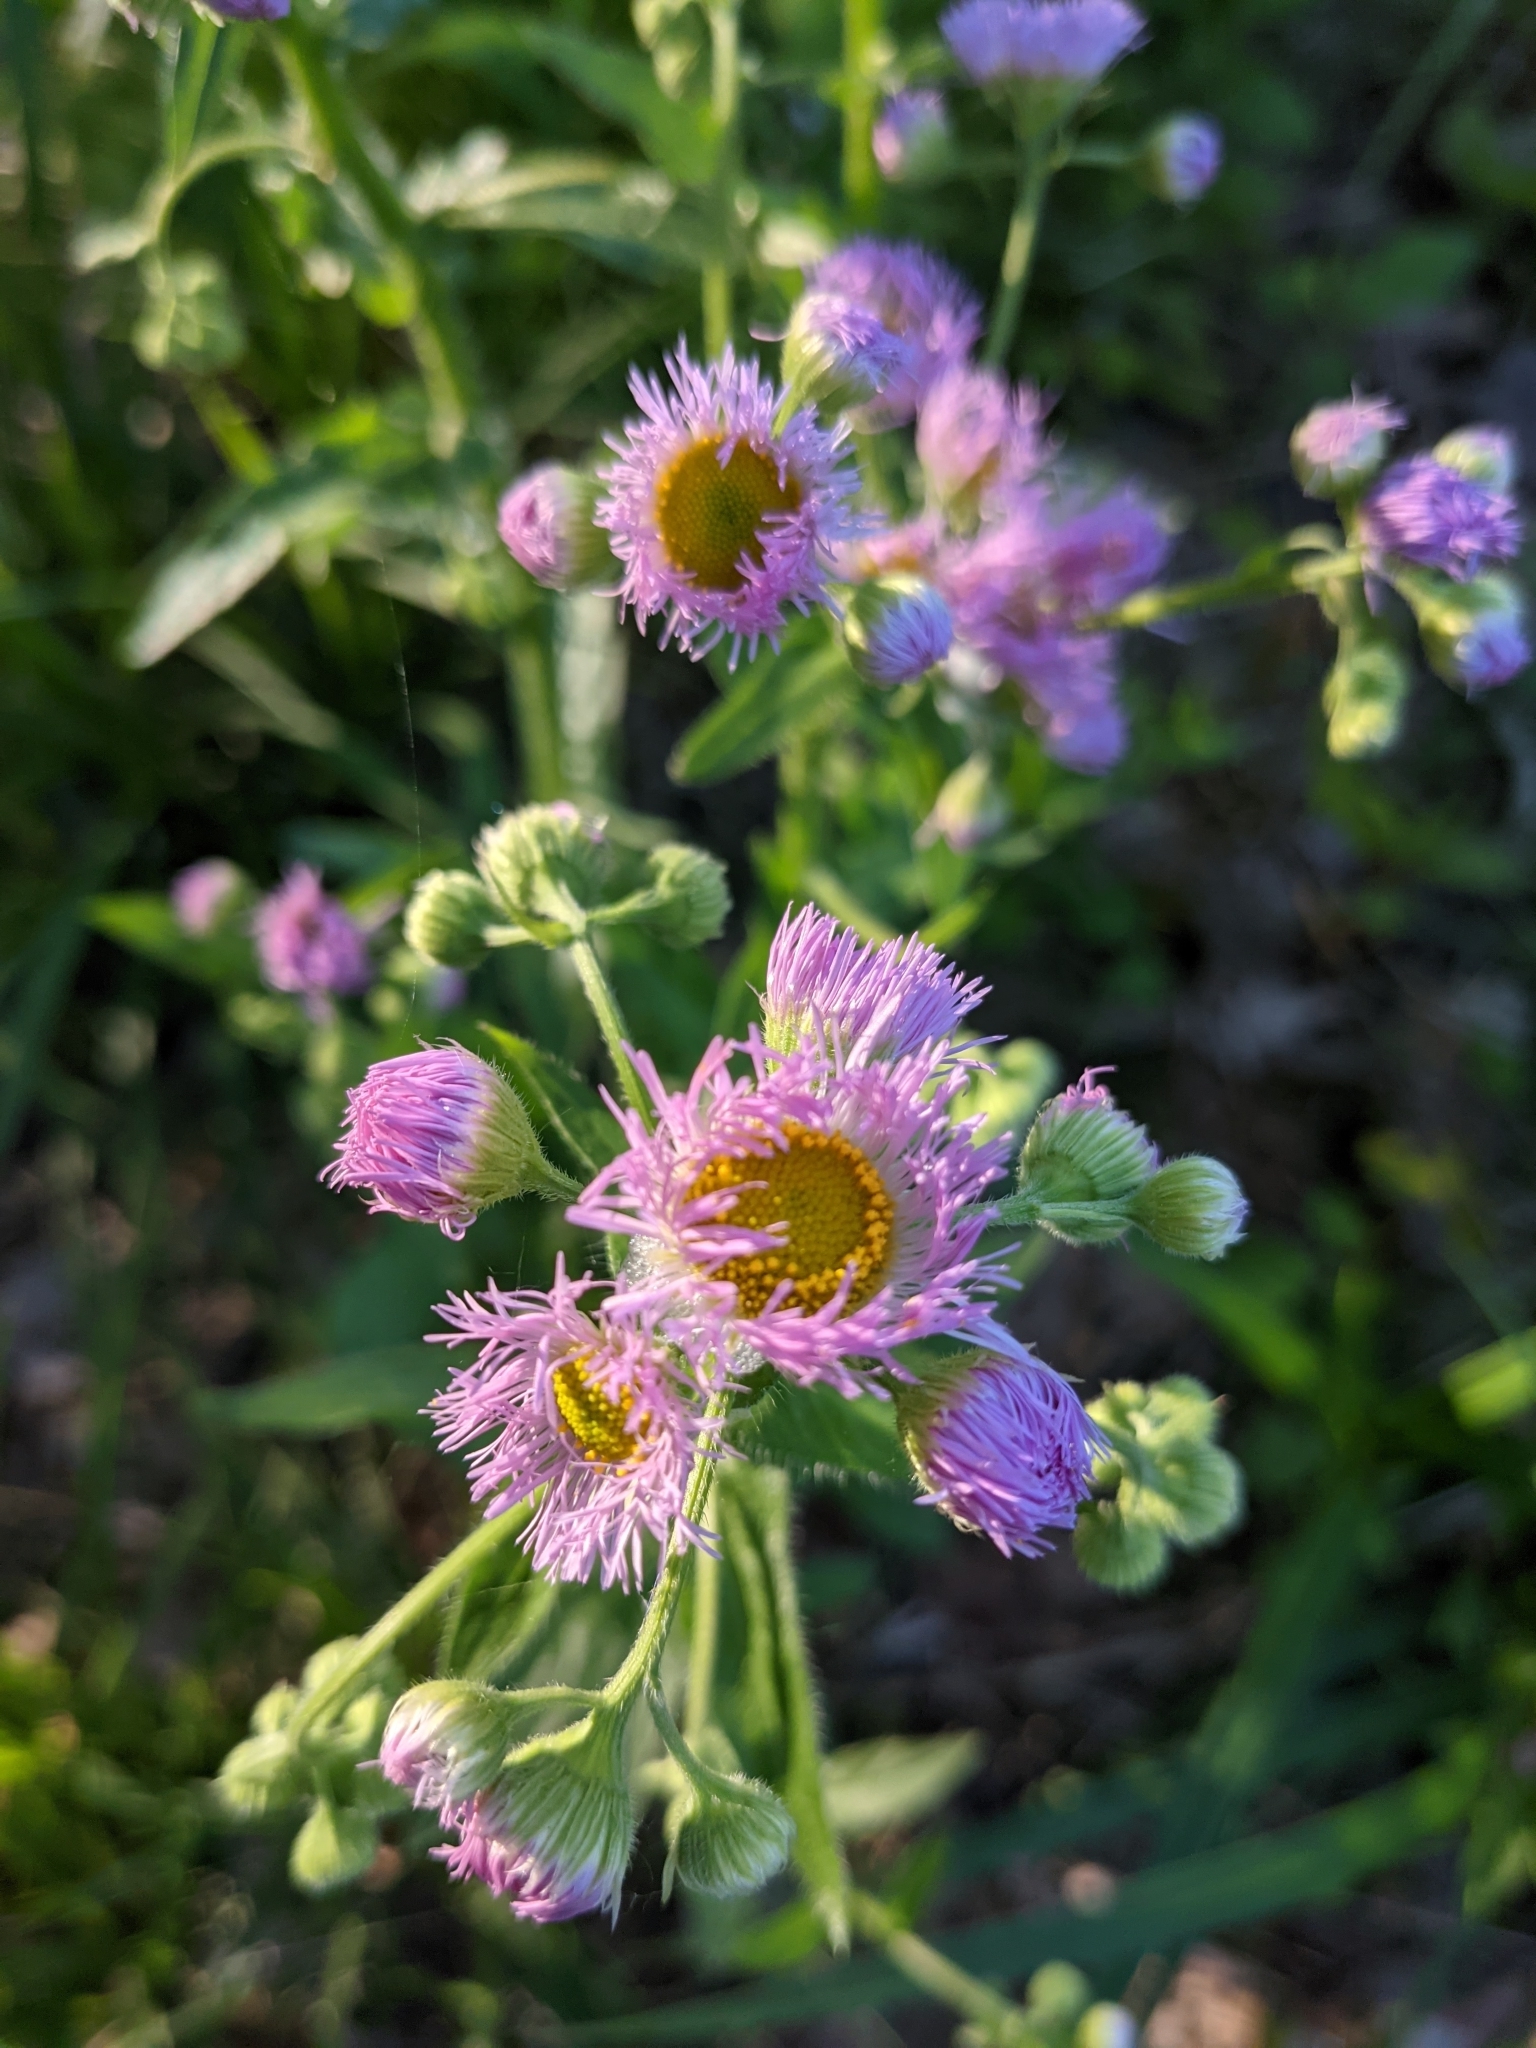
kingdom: Plantae
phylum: Tracheophyta
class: Magnoliopsida
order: Asterales
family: Asteraceae
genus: Erigeron
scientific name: Erigeron philadelphicus
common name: Robin's-plantain
